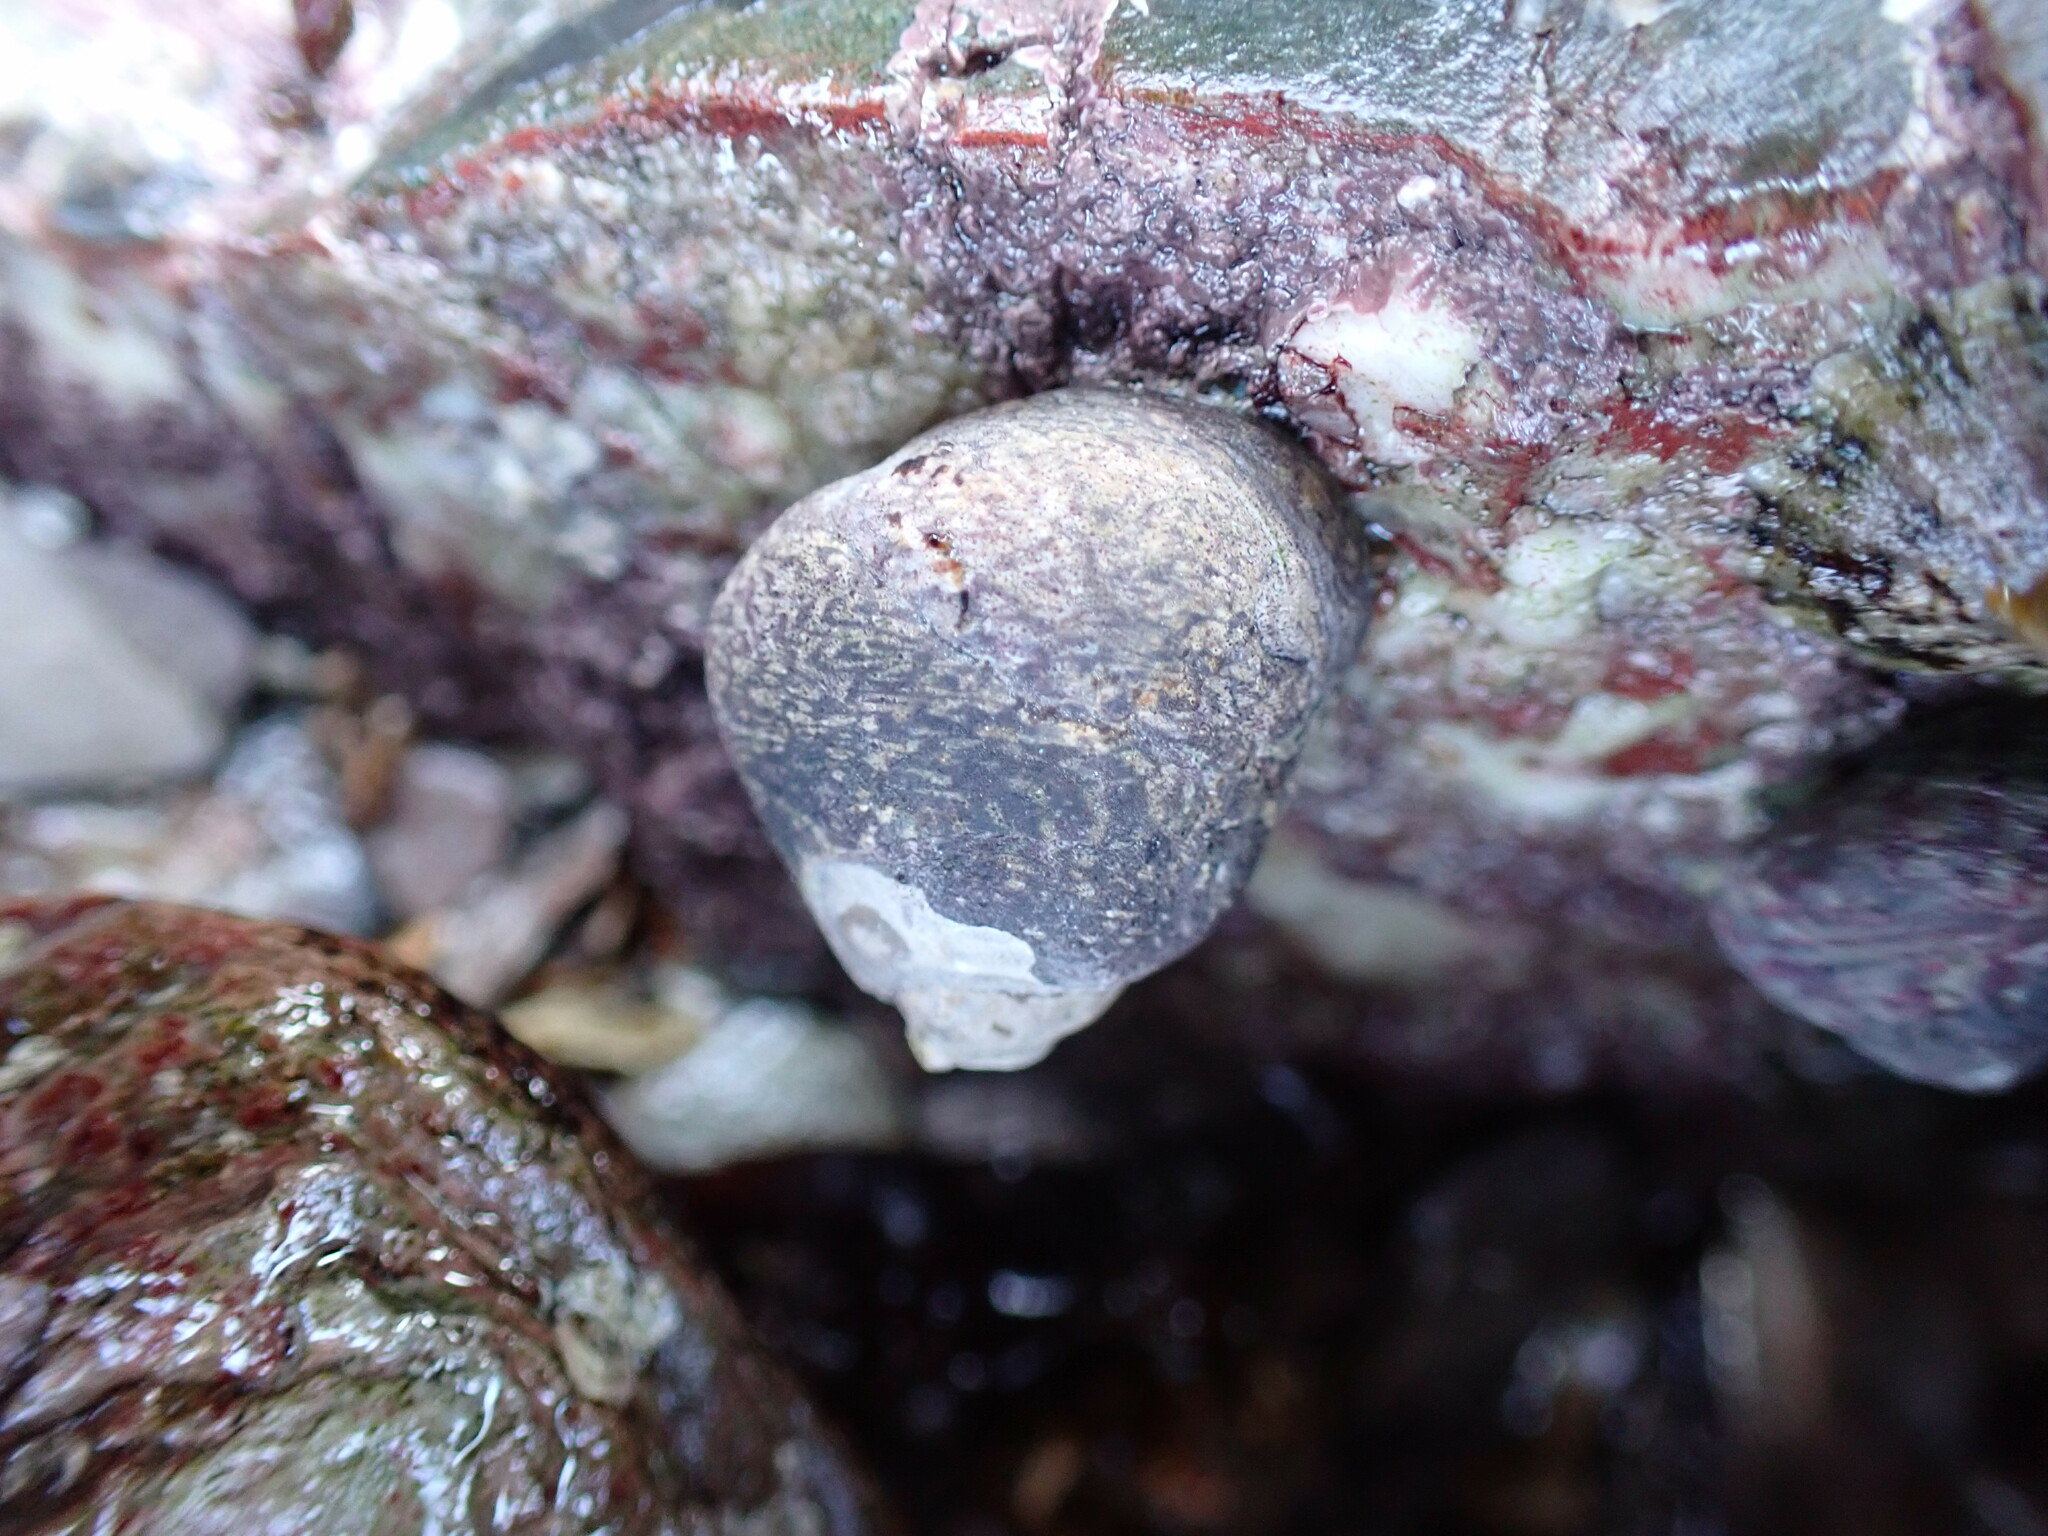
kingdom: Animalia
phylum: Mollusca
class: Gastropoda
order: Trochida
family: Trochidae
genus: Phorcus
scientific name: Phorcus lineatus
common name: Toothed top shell
